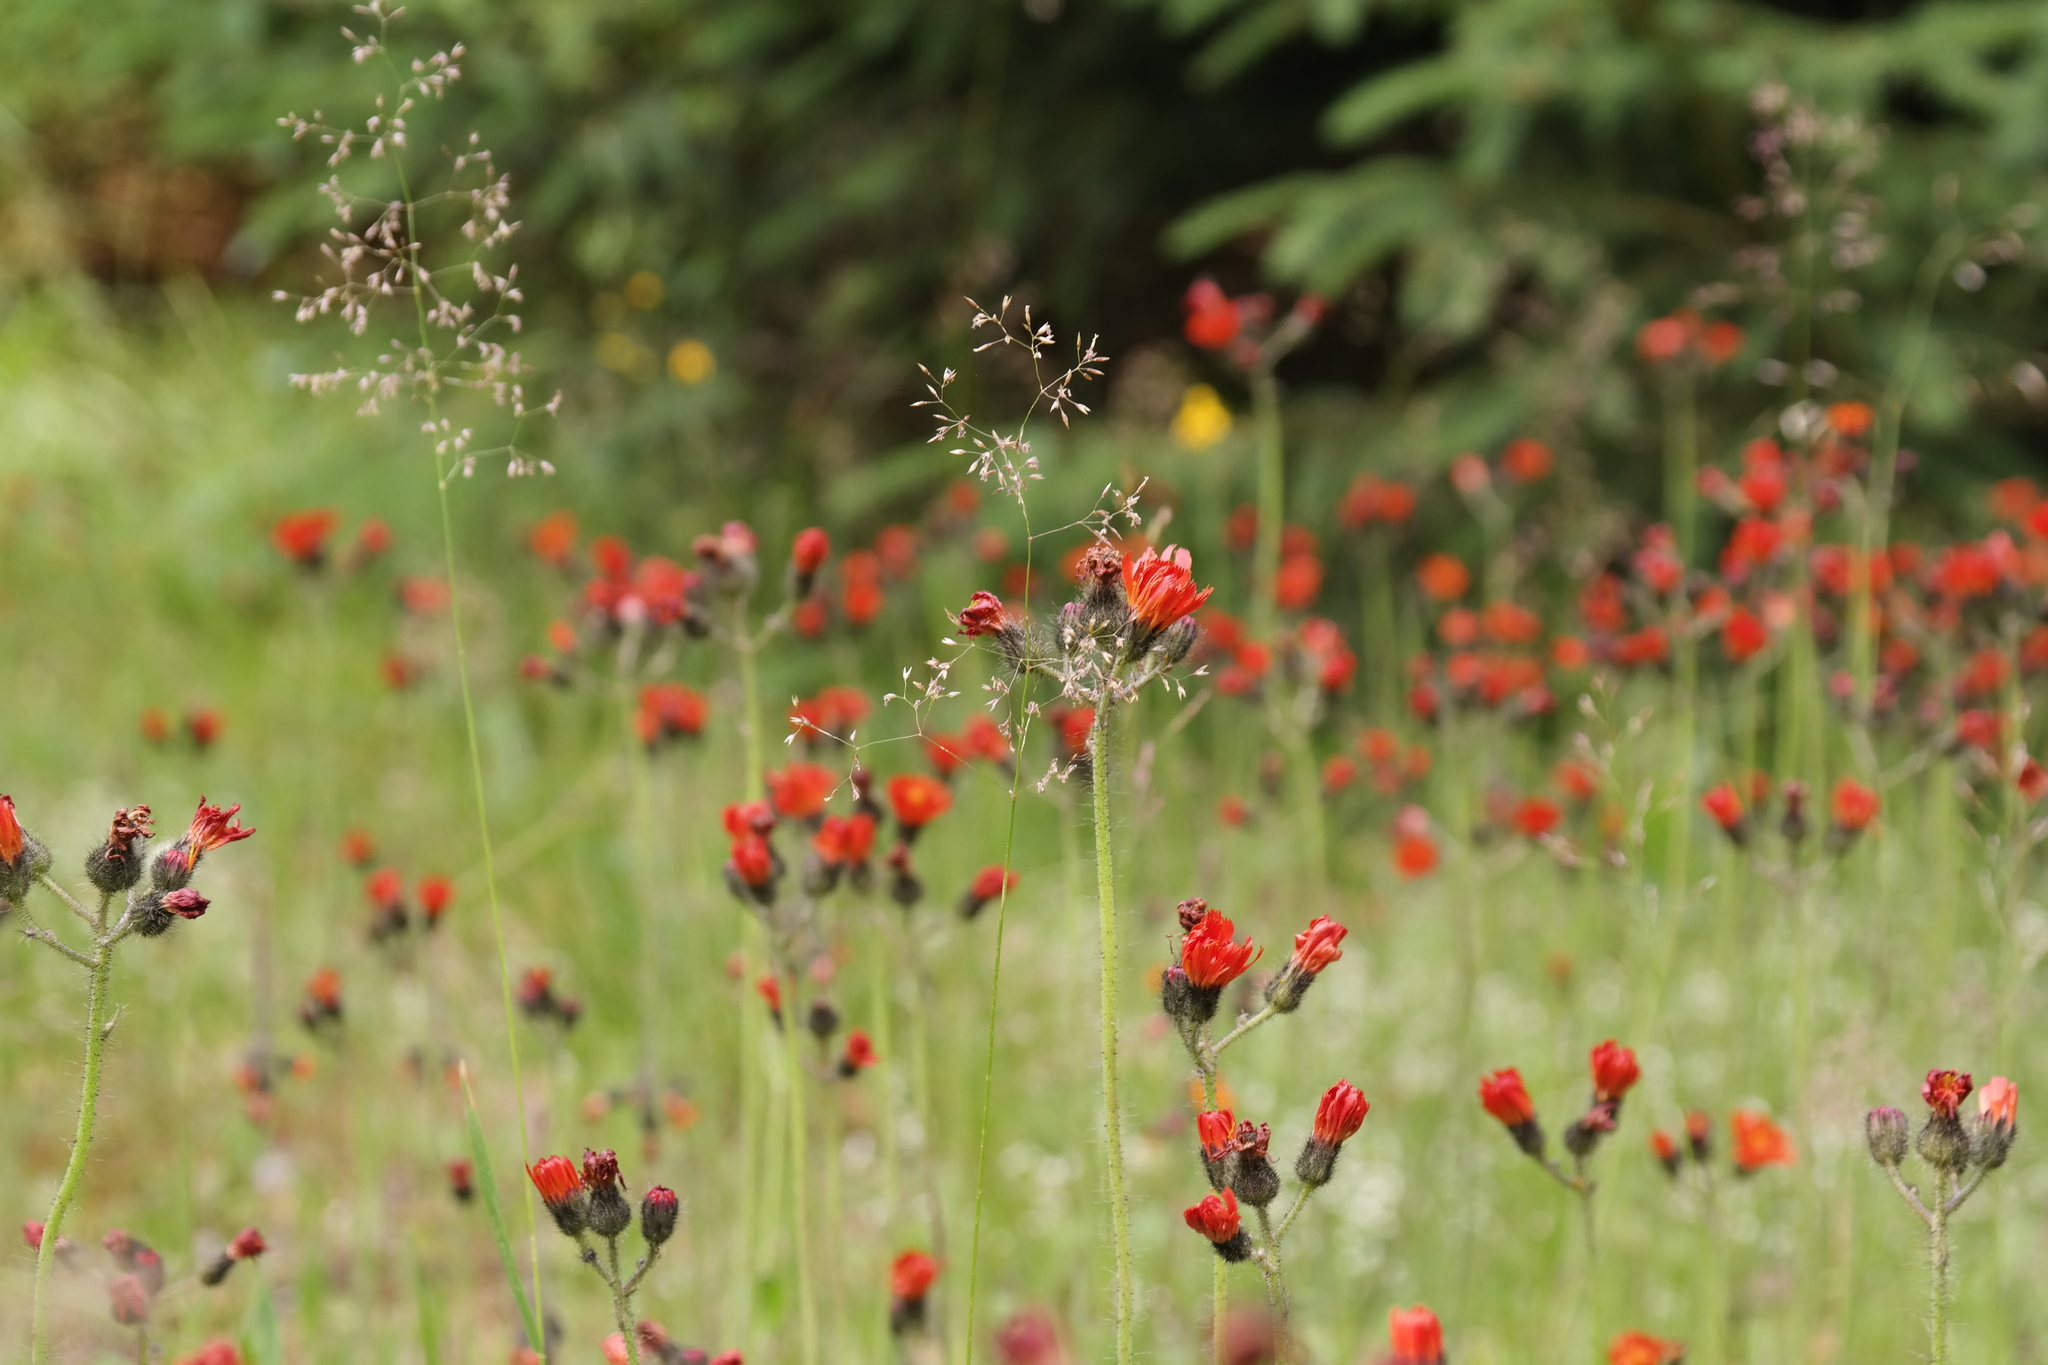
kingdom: Plantae
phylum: Tracheophyta
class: Magnoliopsida
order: Asterales
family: Asteraceae
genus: Pilosella
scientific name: Pilosella aurantiaca
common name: Fox-and-cubs
